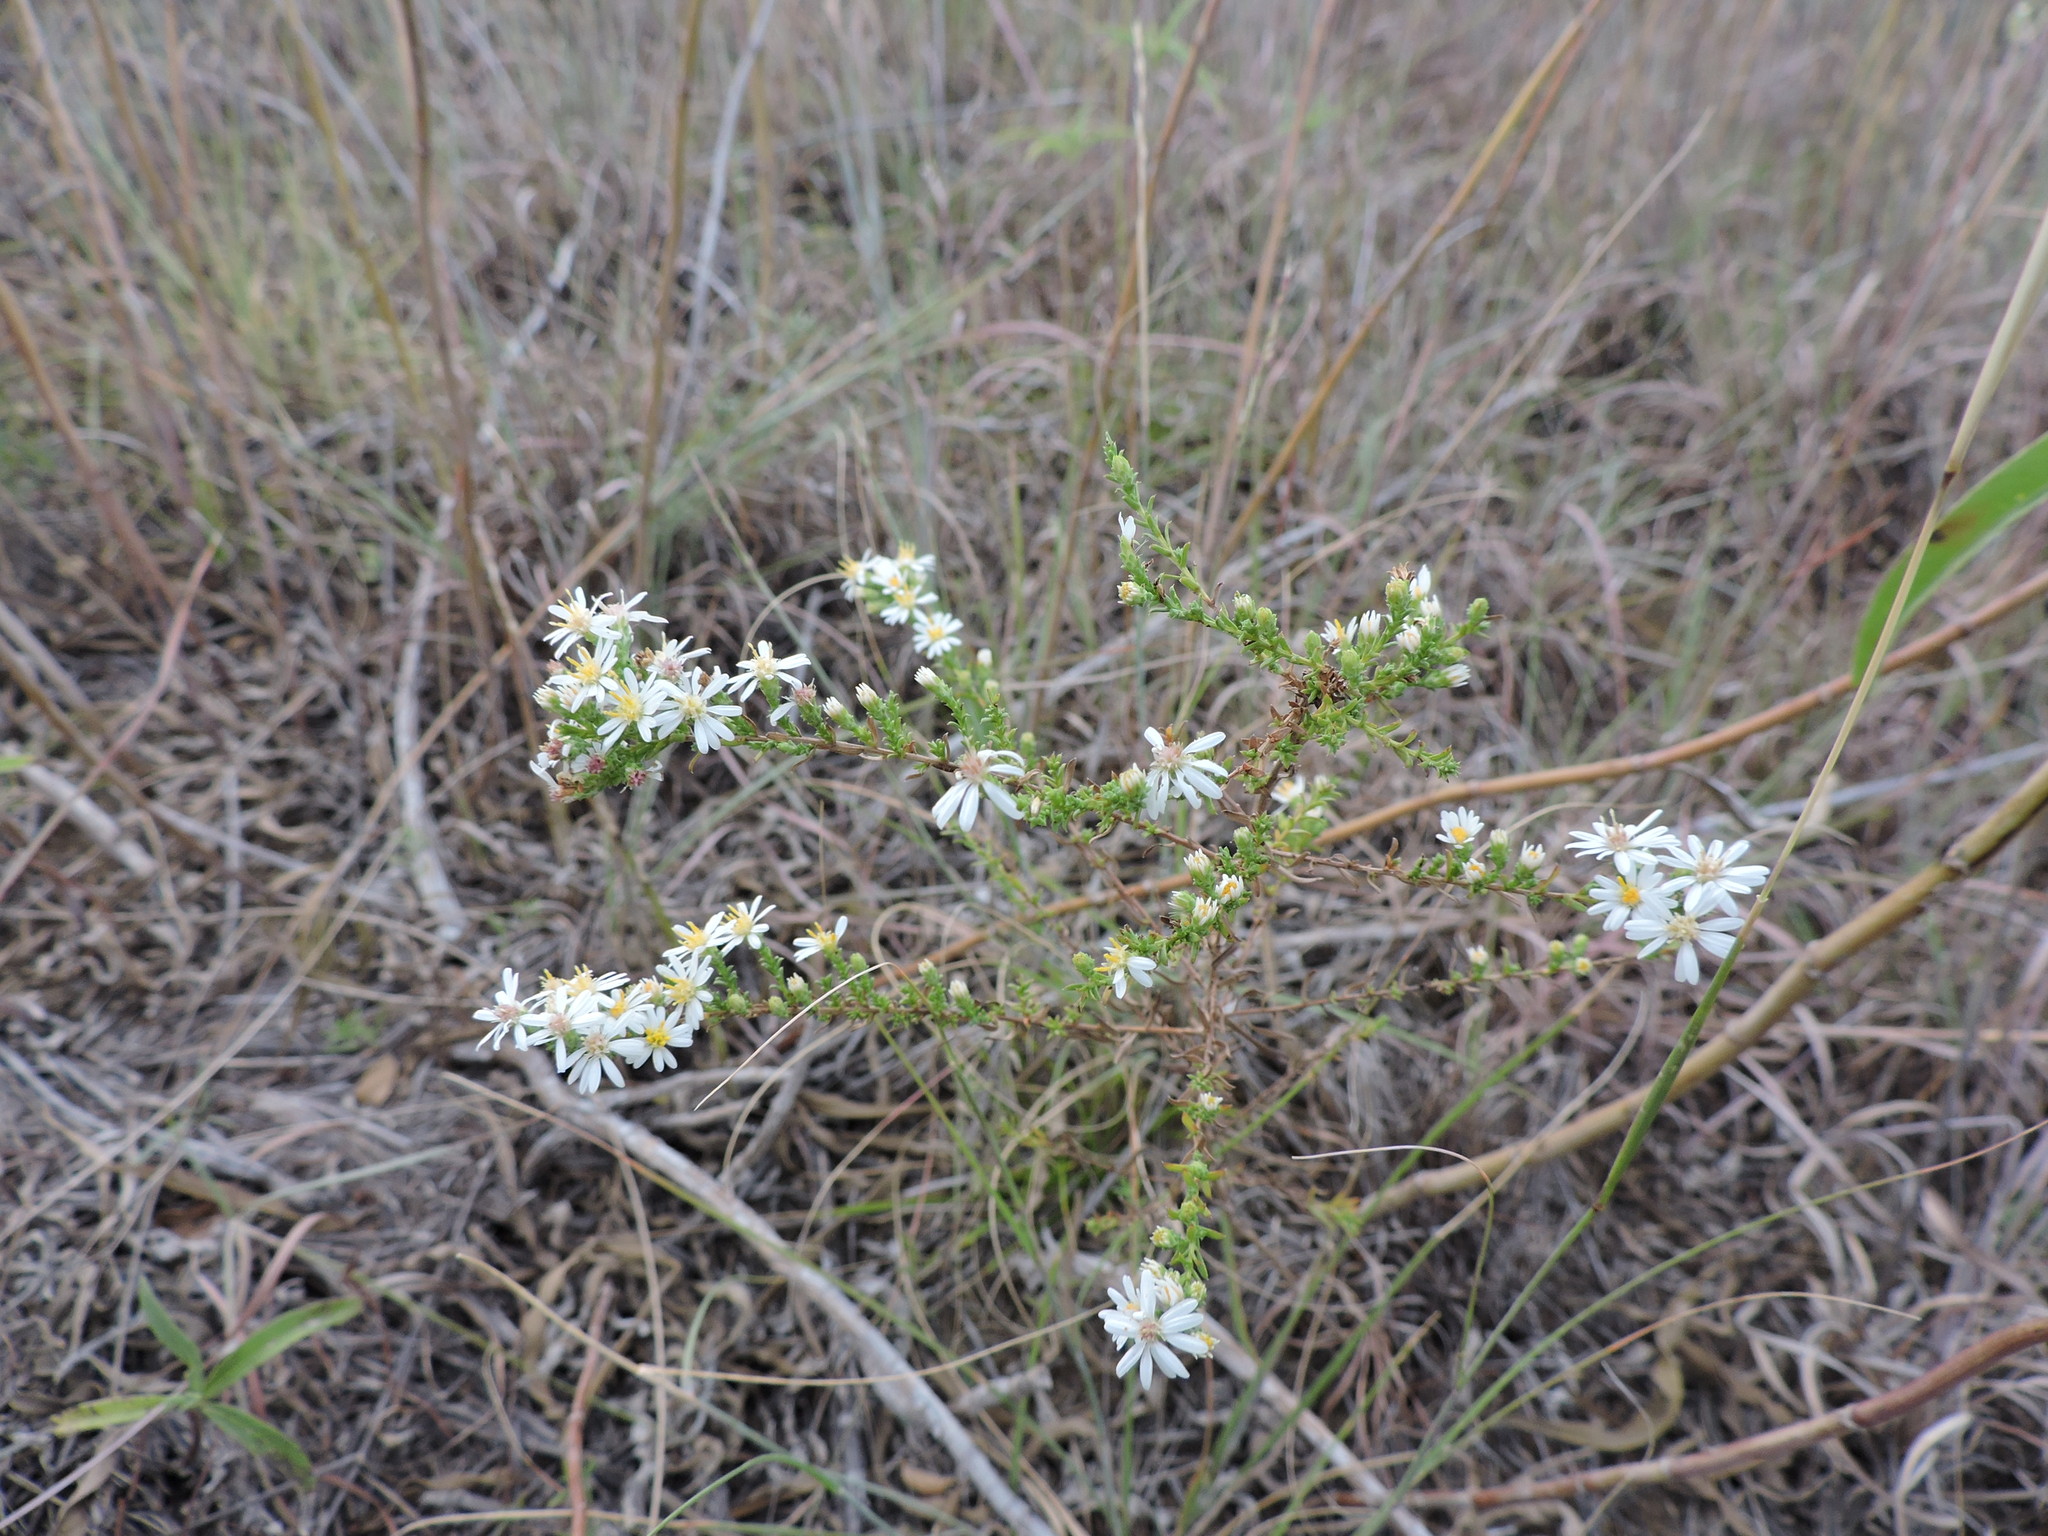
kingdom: Plantae
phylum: Tracheophyta
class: Magnoliopsida
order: Asterales
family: Asteraceae
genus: Symphyotrichum
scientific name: Symphyotrichum ericoides
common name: Heath aster
